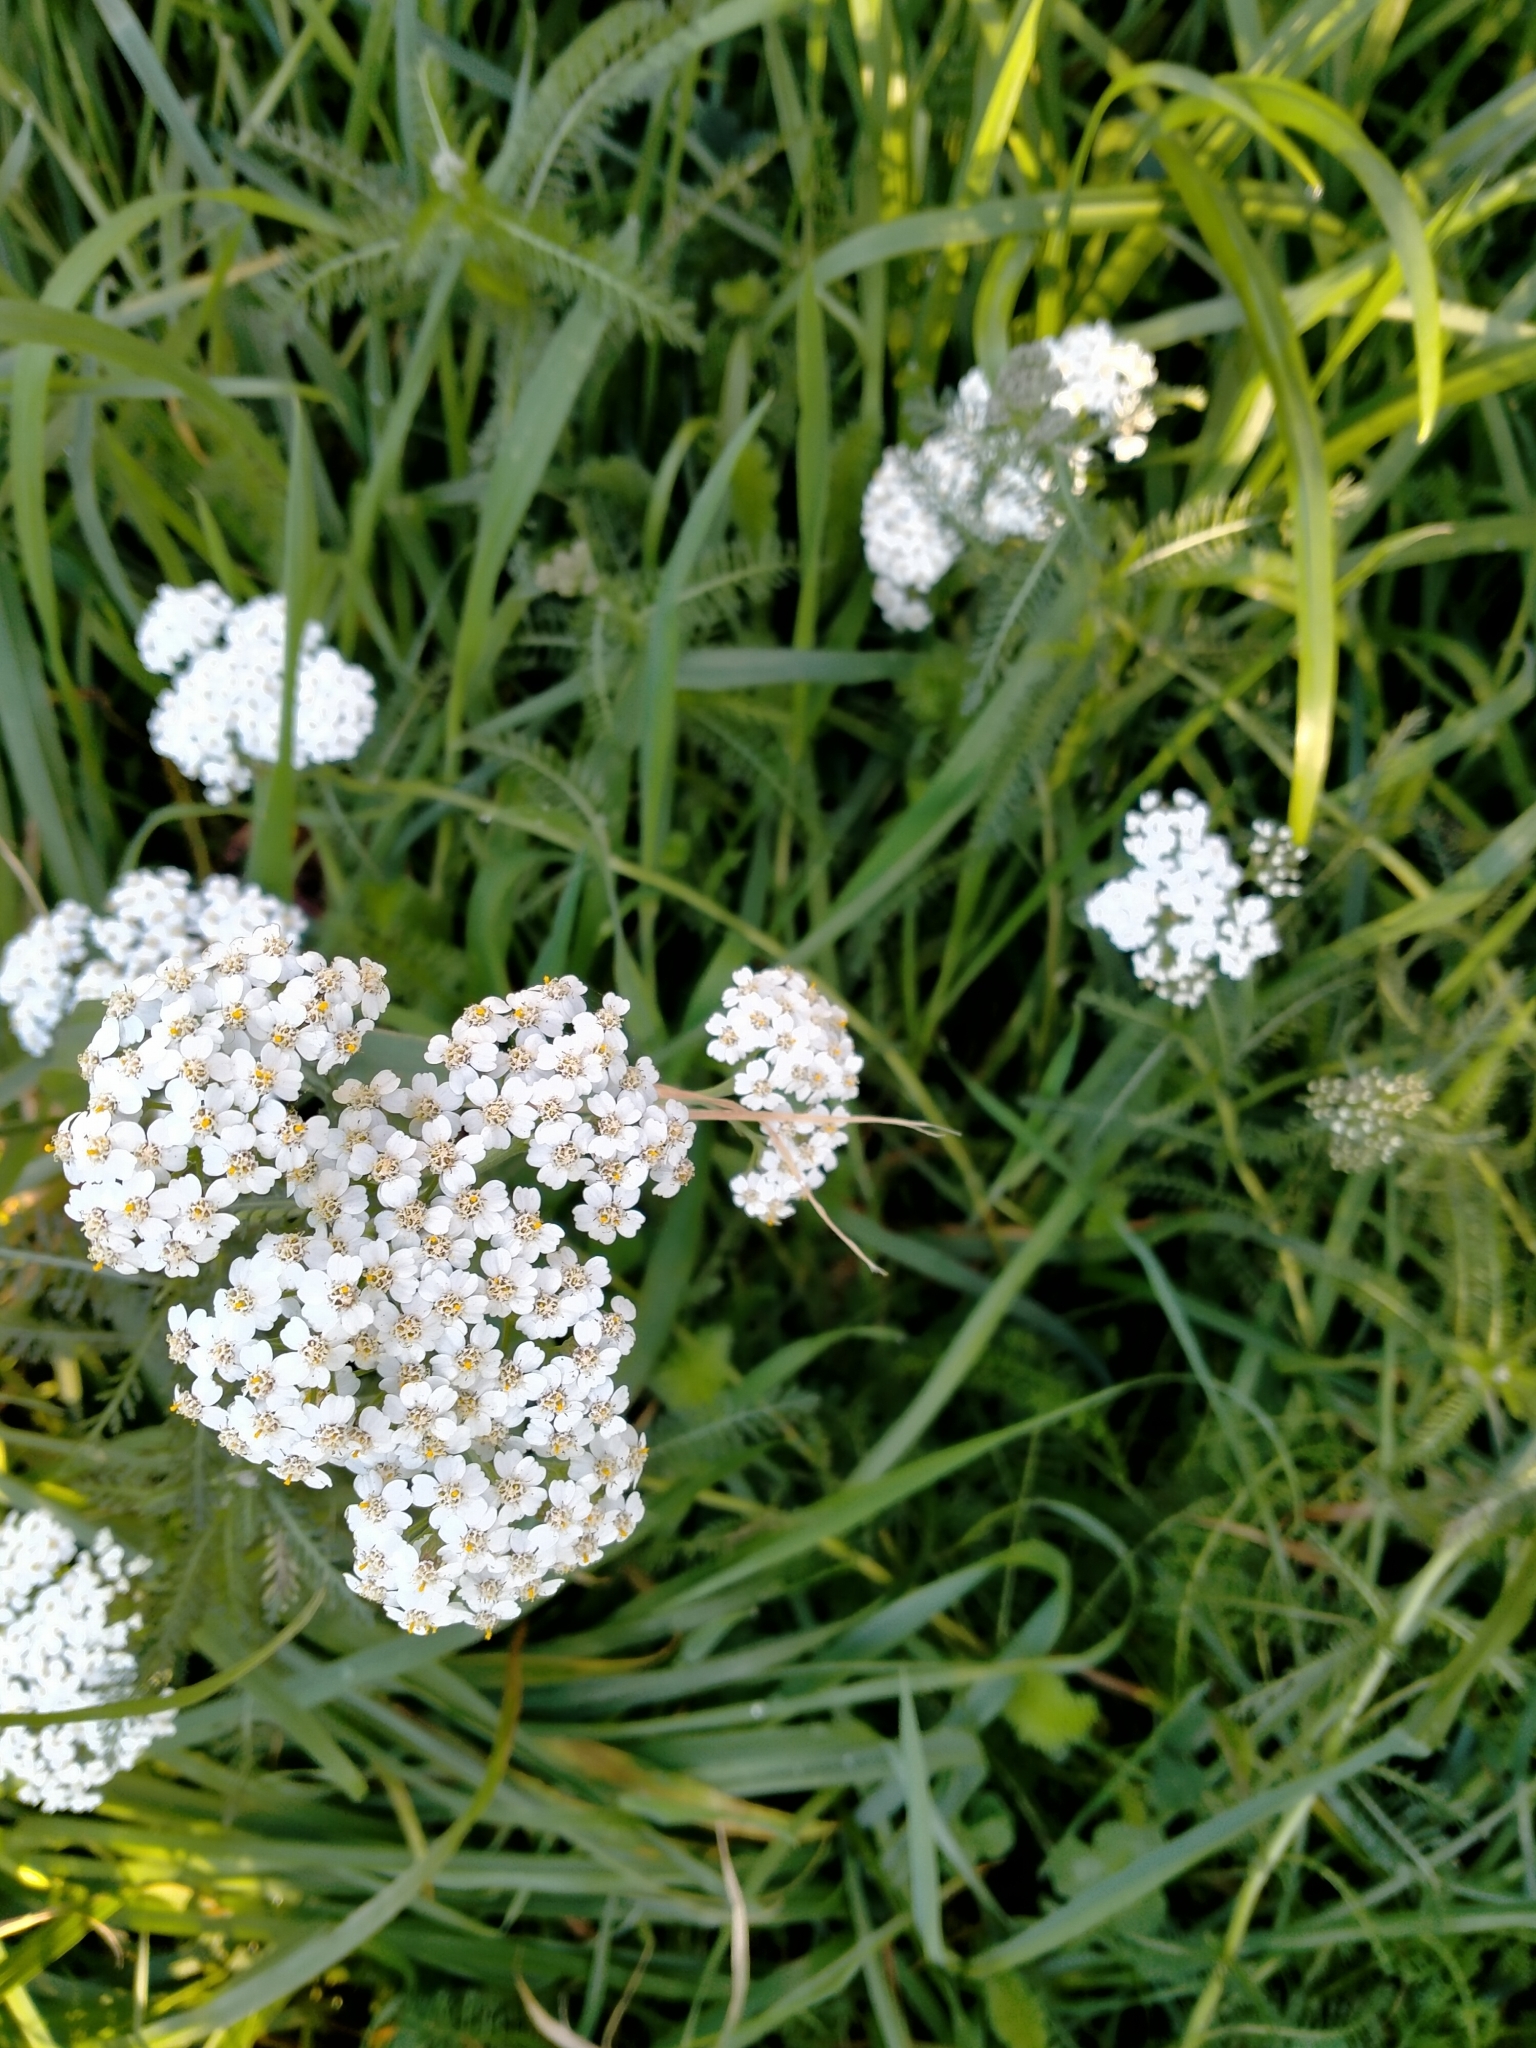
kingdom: Plantae
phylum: Tracheophyta
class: Magnoliopsida
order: Asterales
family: Asteraceae
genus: Achillea
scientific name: Achillea millefolium
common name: Yarrow
